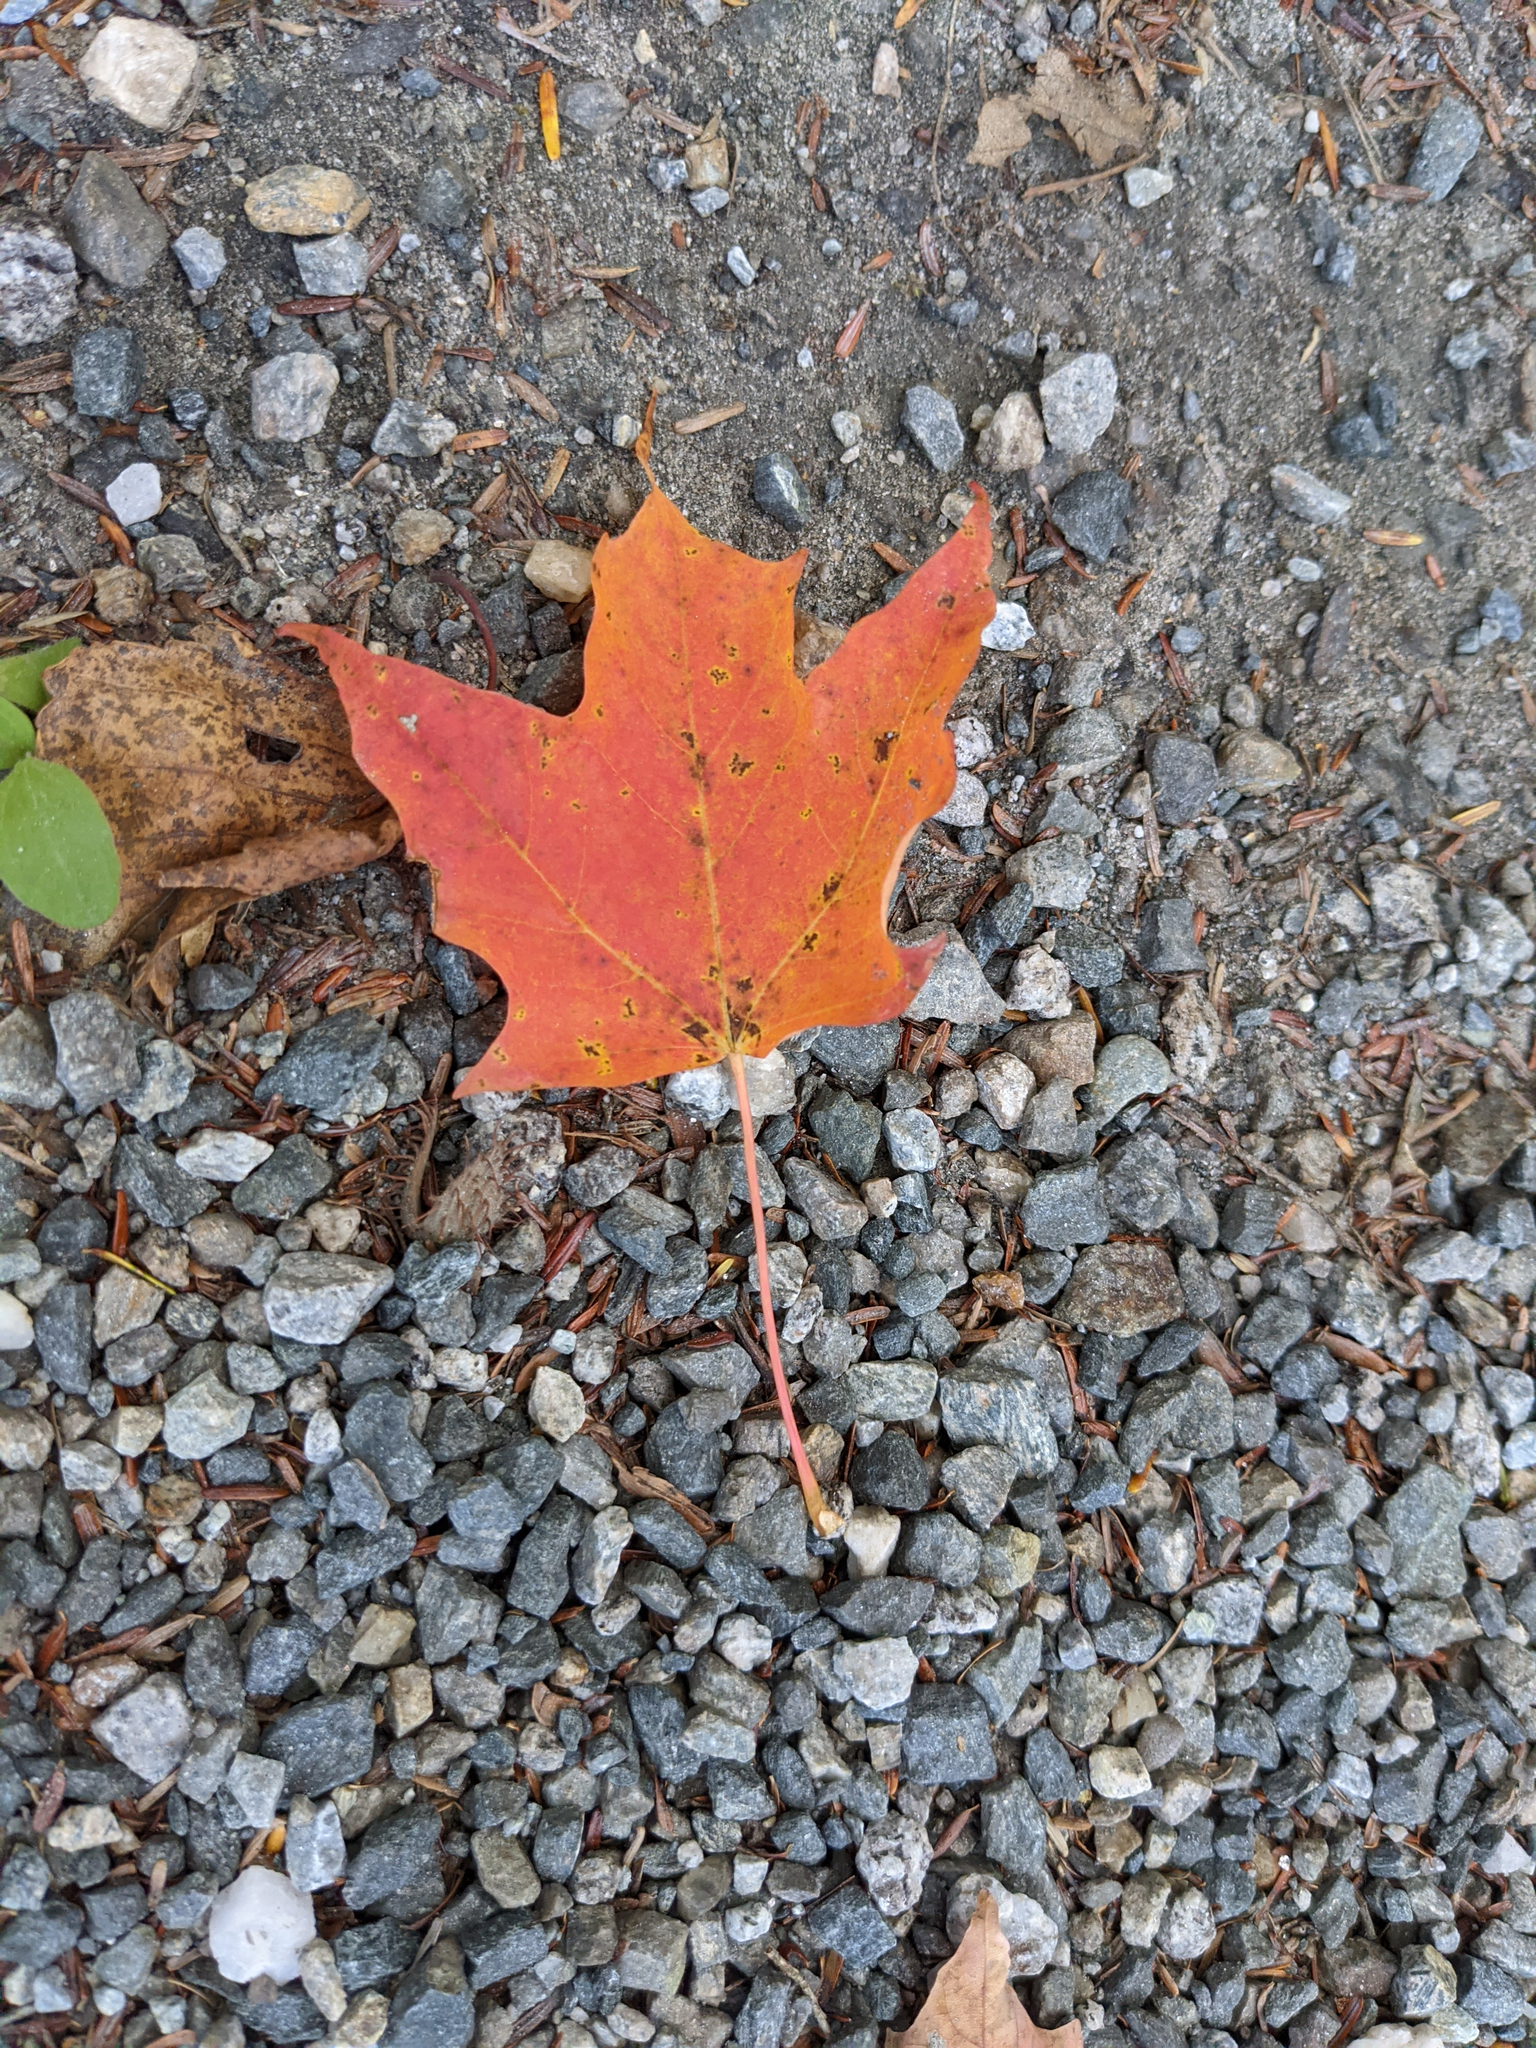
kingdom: Plantae
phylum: Tracheophyta
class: Magnoliopsida
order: Sapindales
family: Sapindaceae
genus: Acer
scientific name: Acer saccharum
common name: Sugar maple
